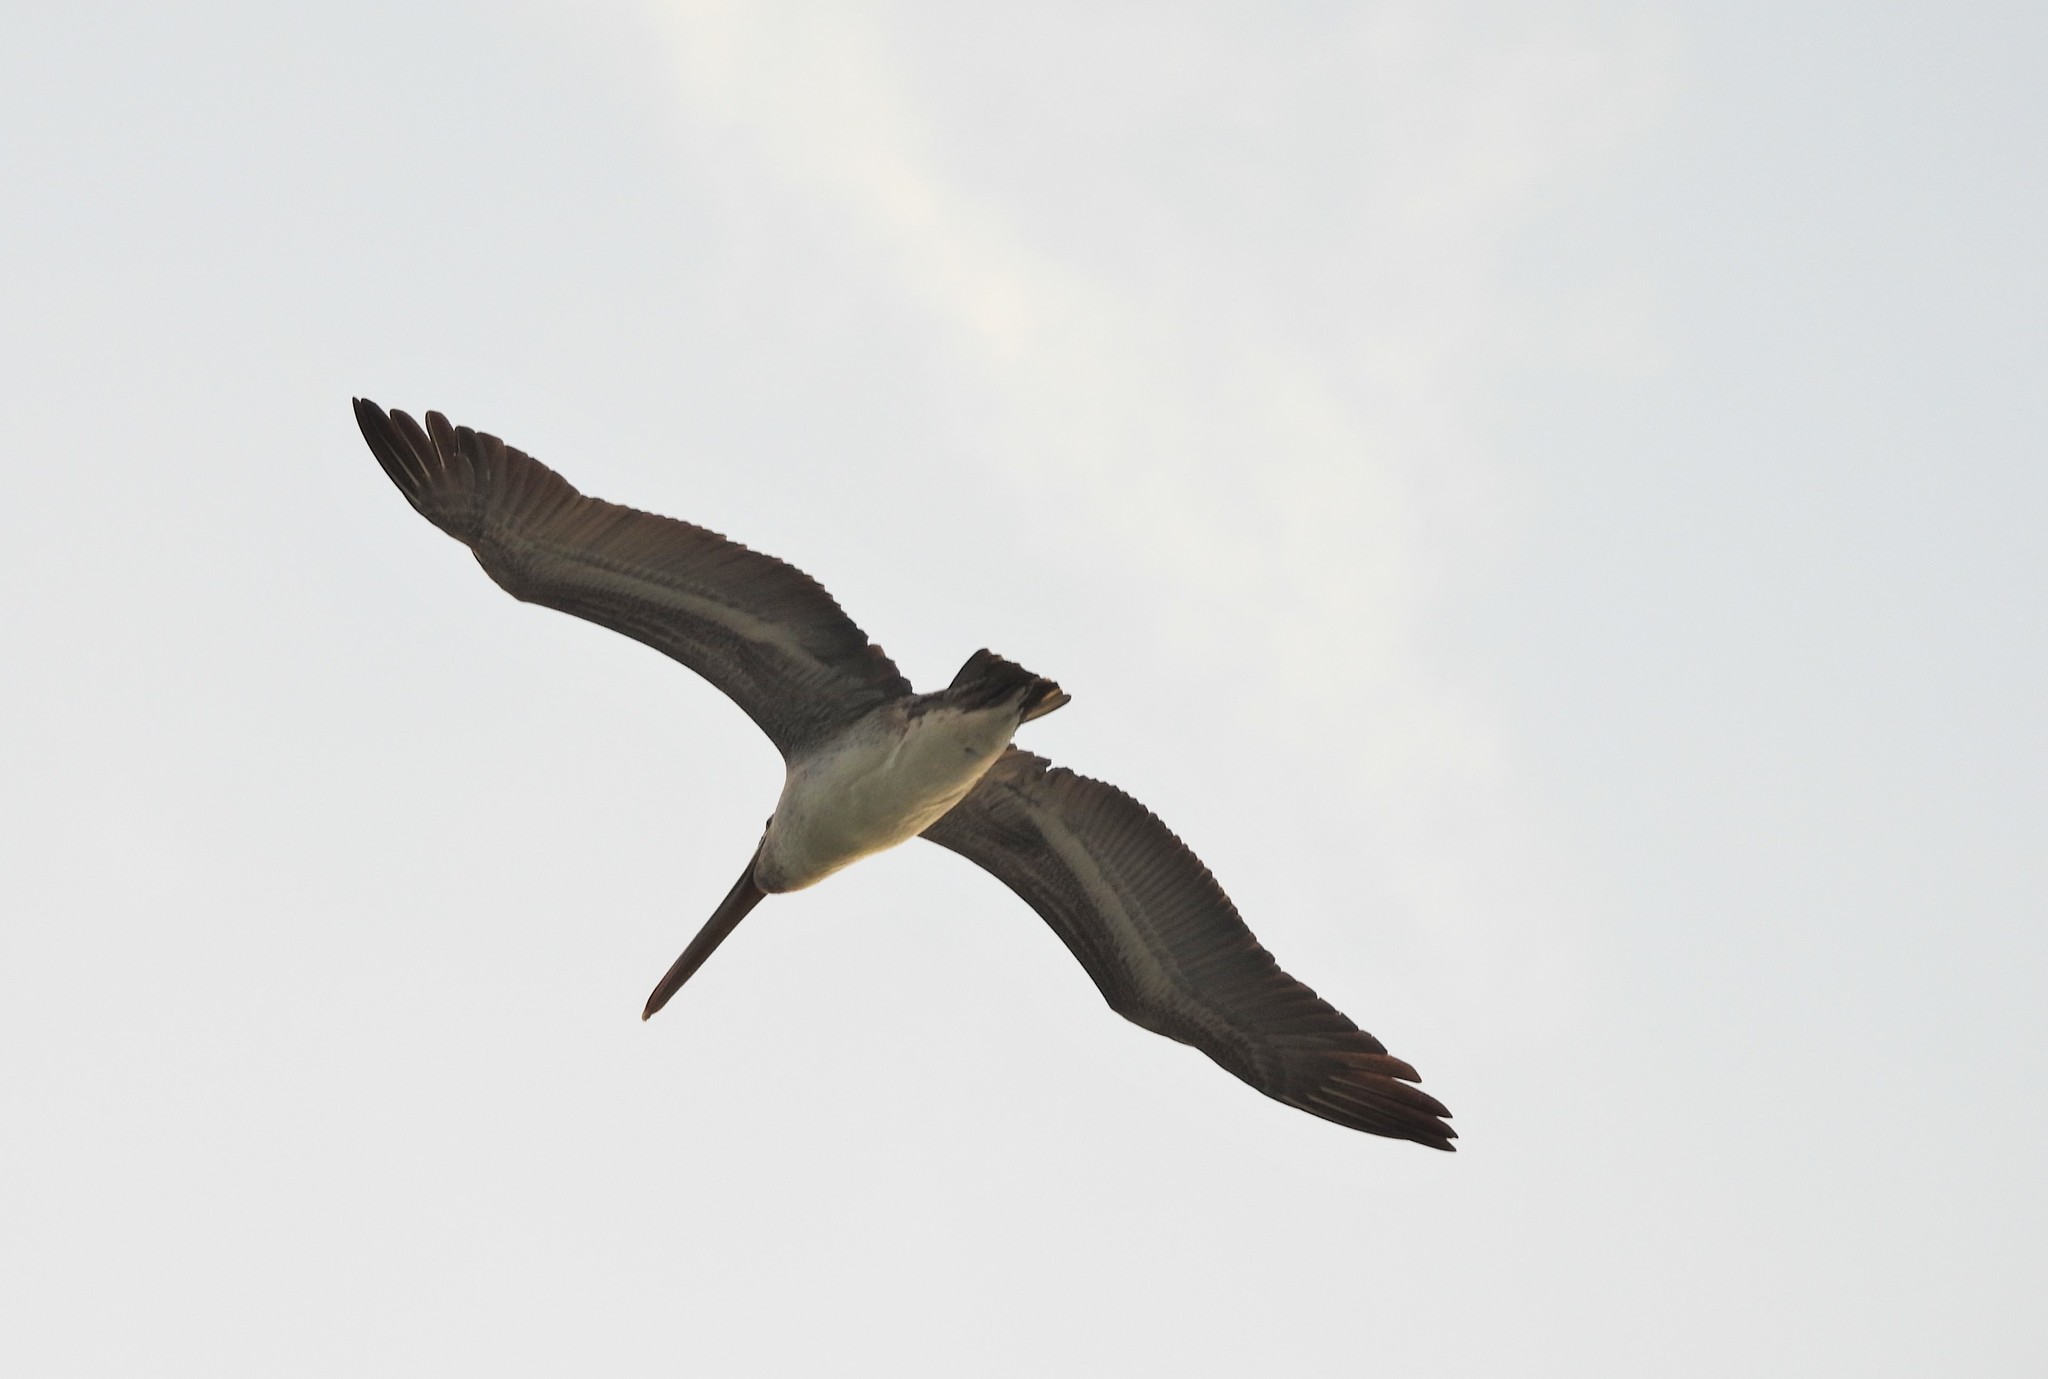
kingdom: Animalia
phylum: Chordata
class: Aves
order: Pelecaniformes
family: Pelecanidae
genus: Pelecanus
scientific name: Pelecanus occidentalis
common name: Brown pelican
